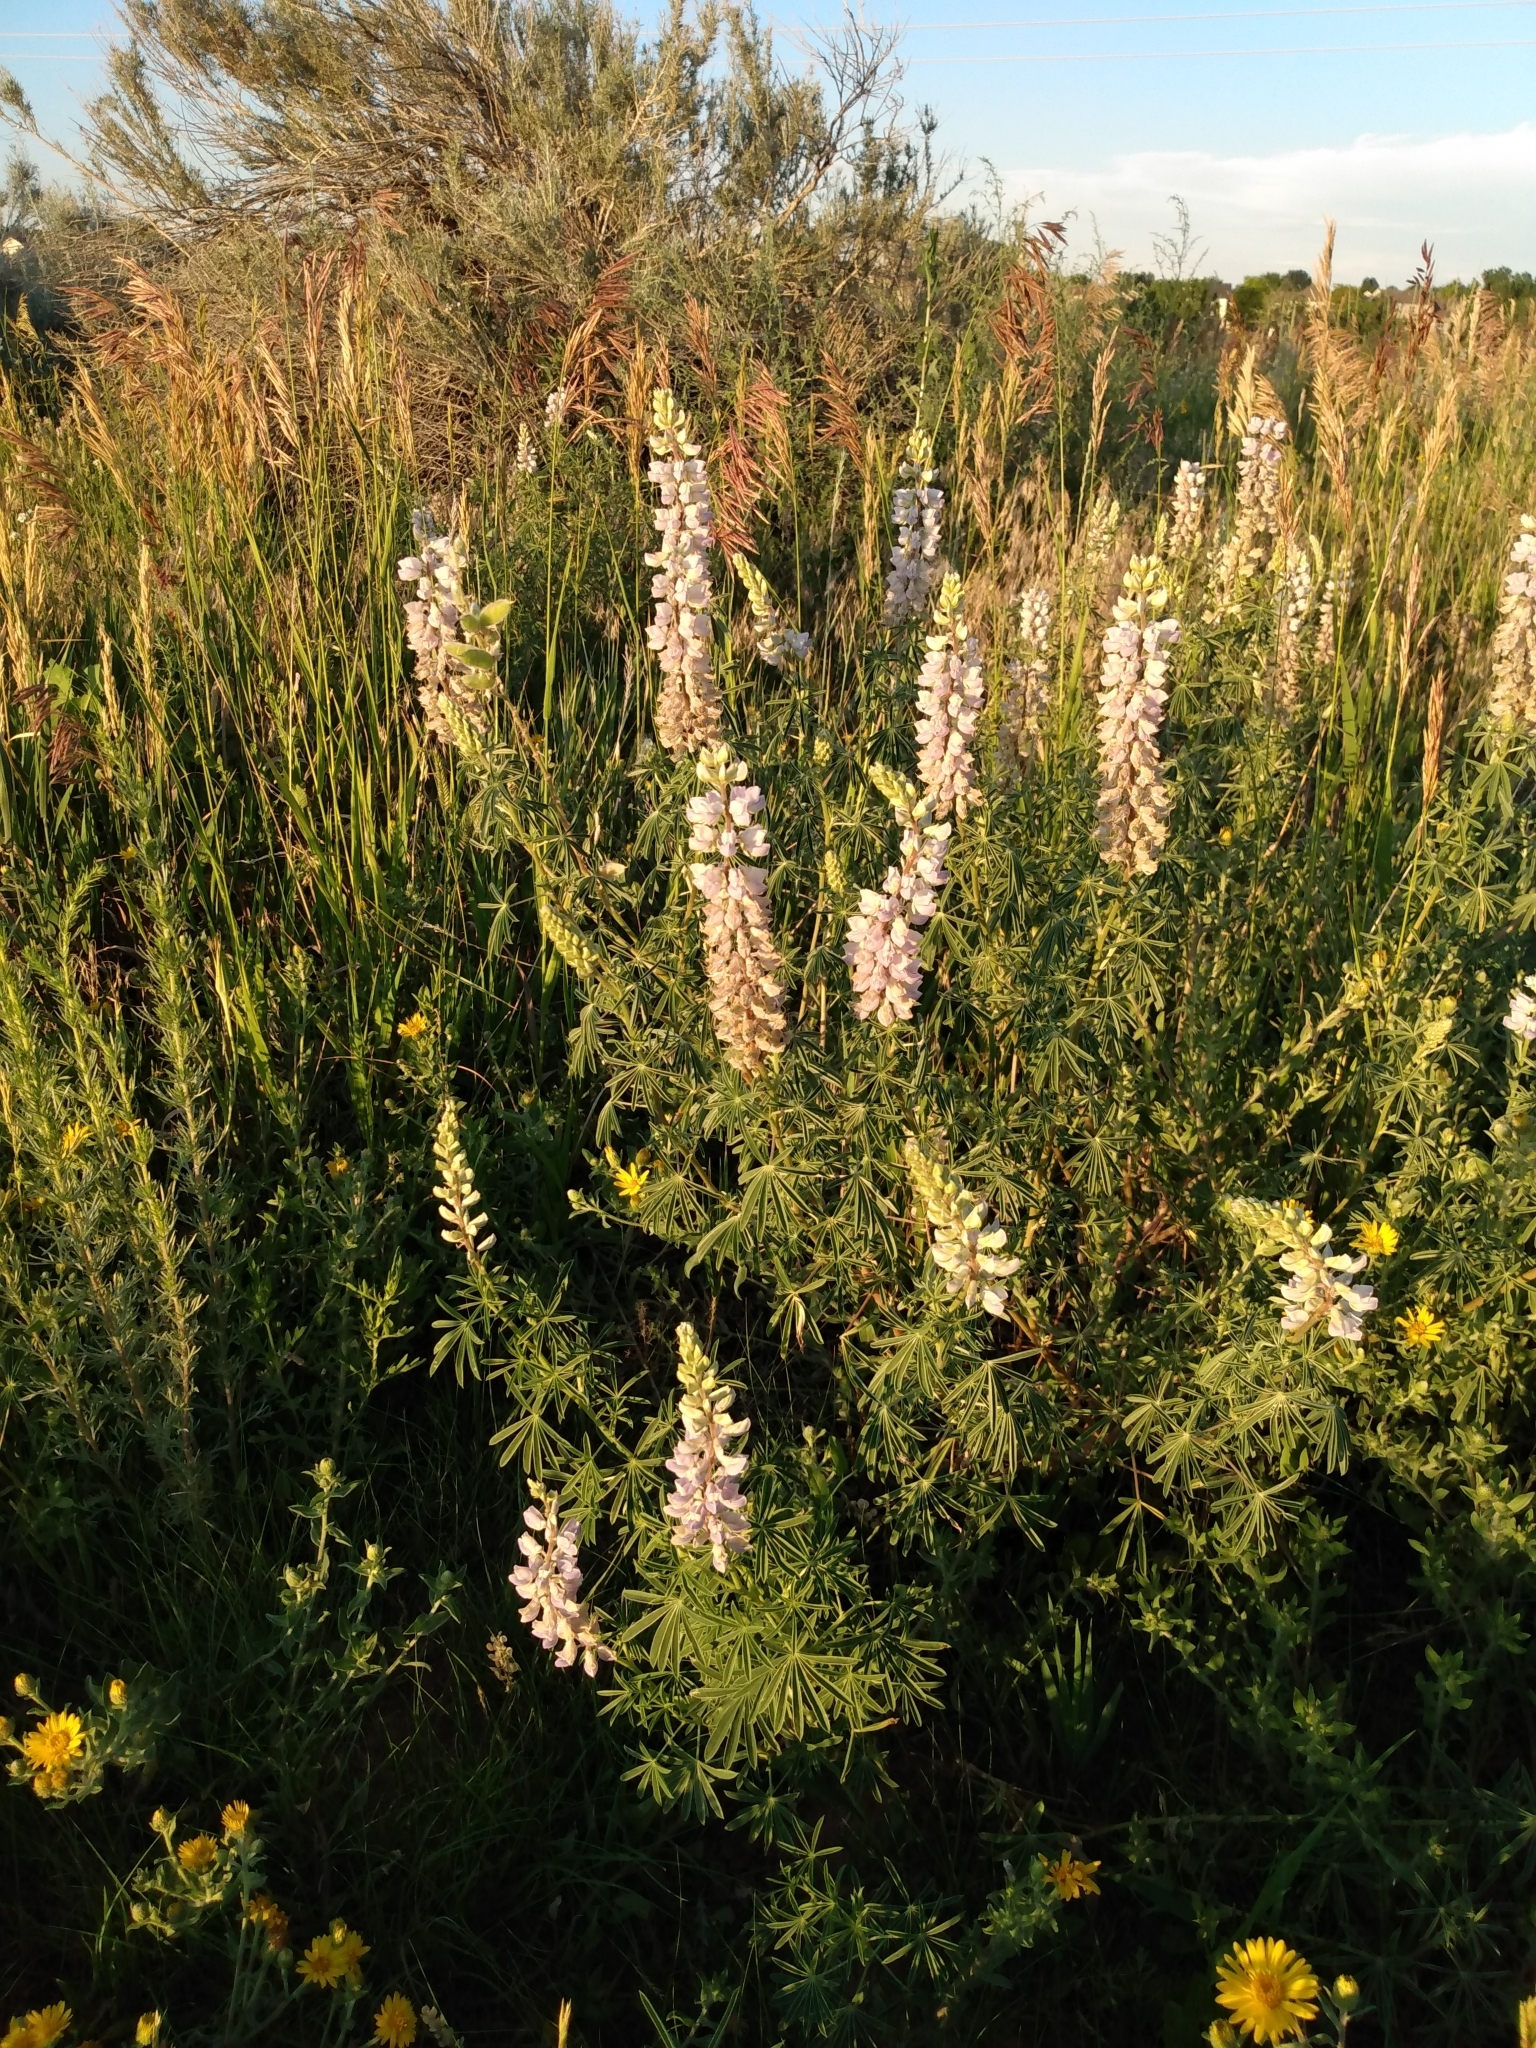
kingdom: Plantae
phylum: Tracheophyta
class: Magnoliopsida
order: Fabales
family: Fabaceae
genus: Lupinus
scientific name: Lupinus argenteus
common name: Silvery lupine
